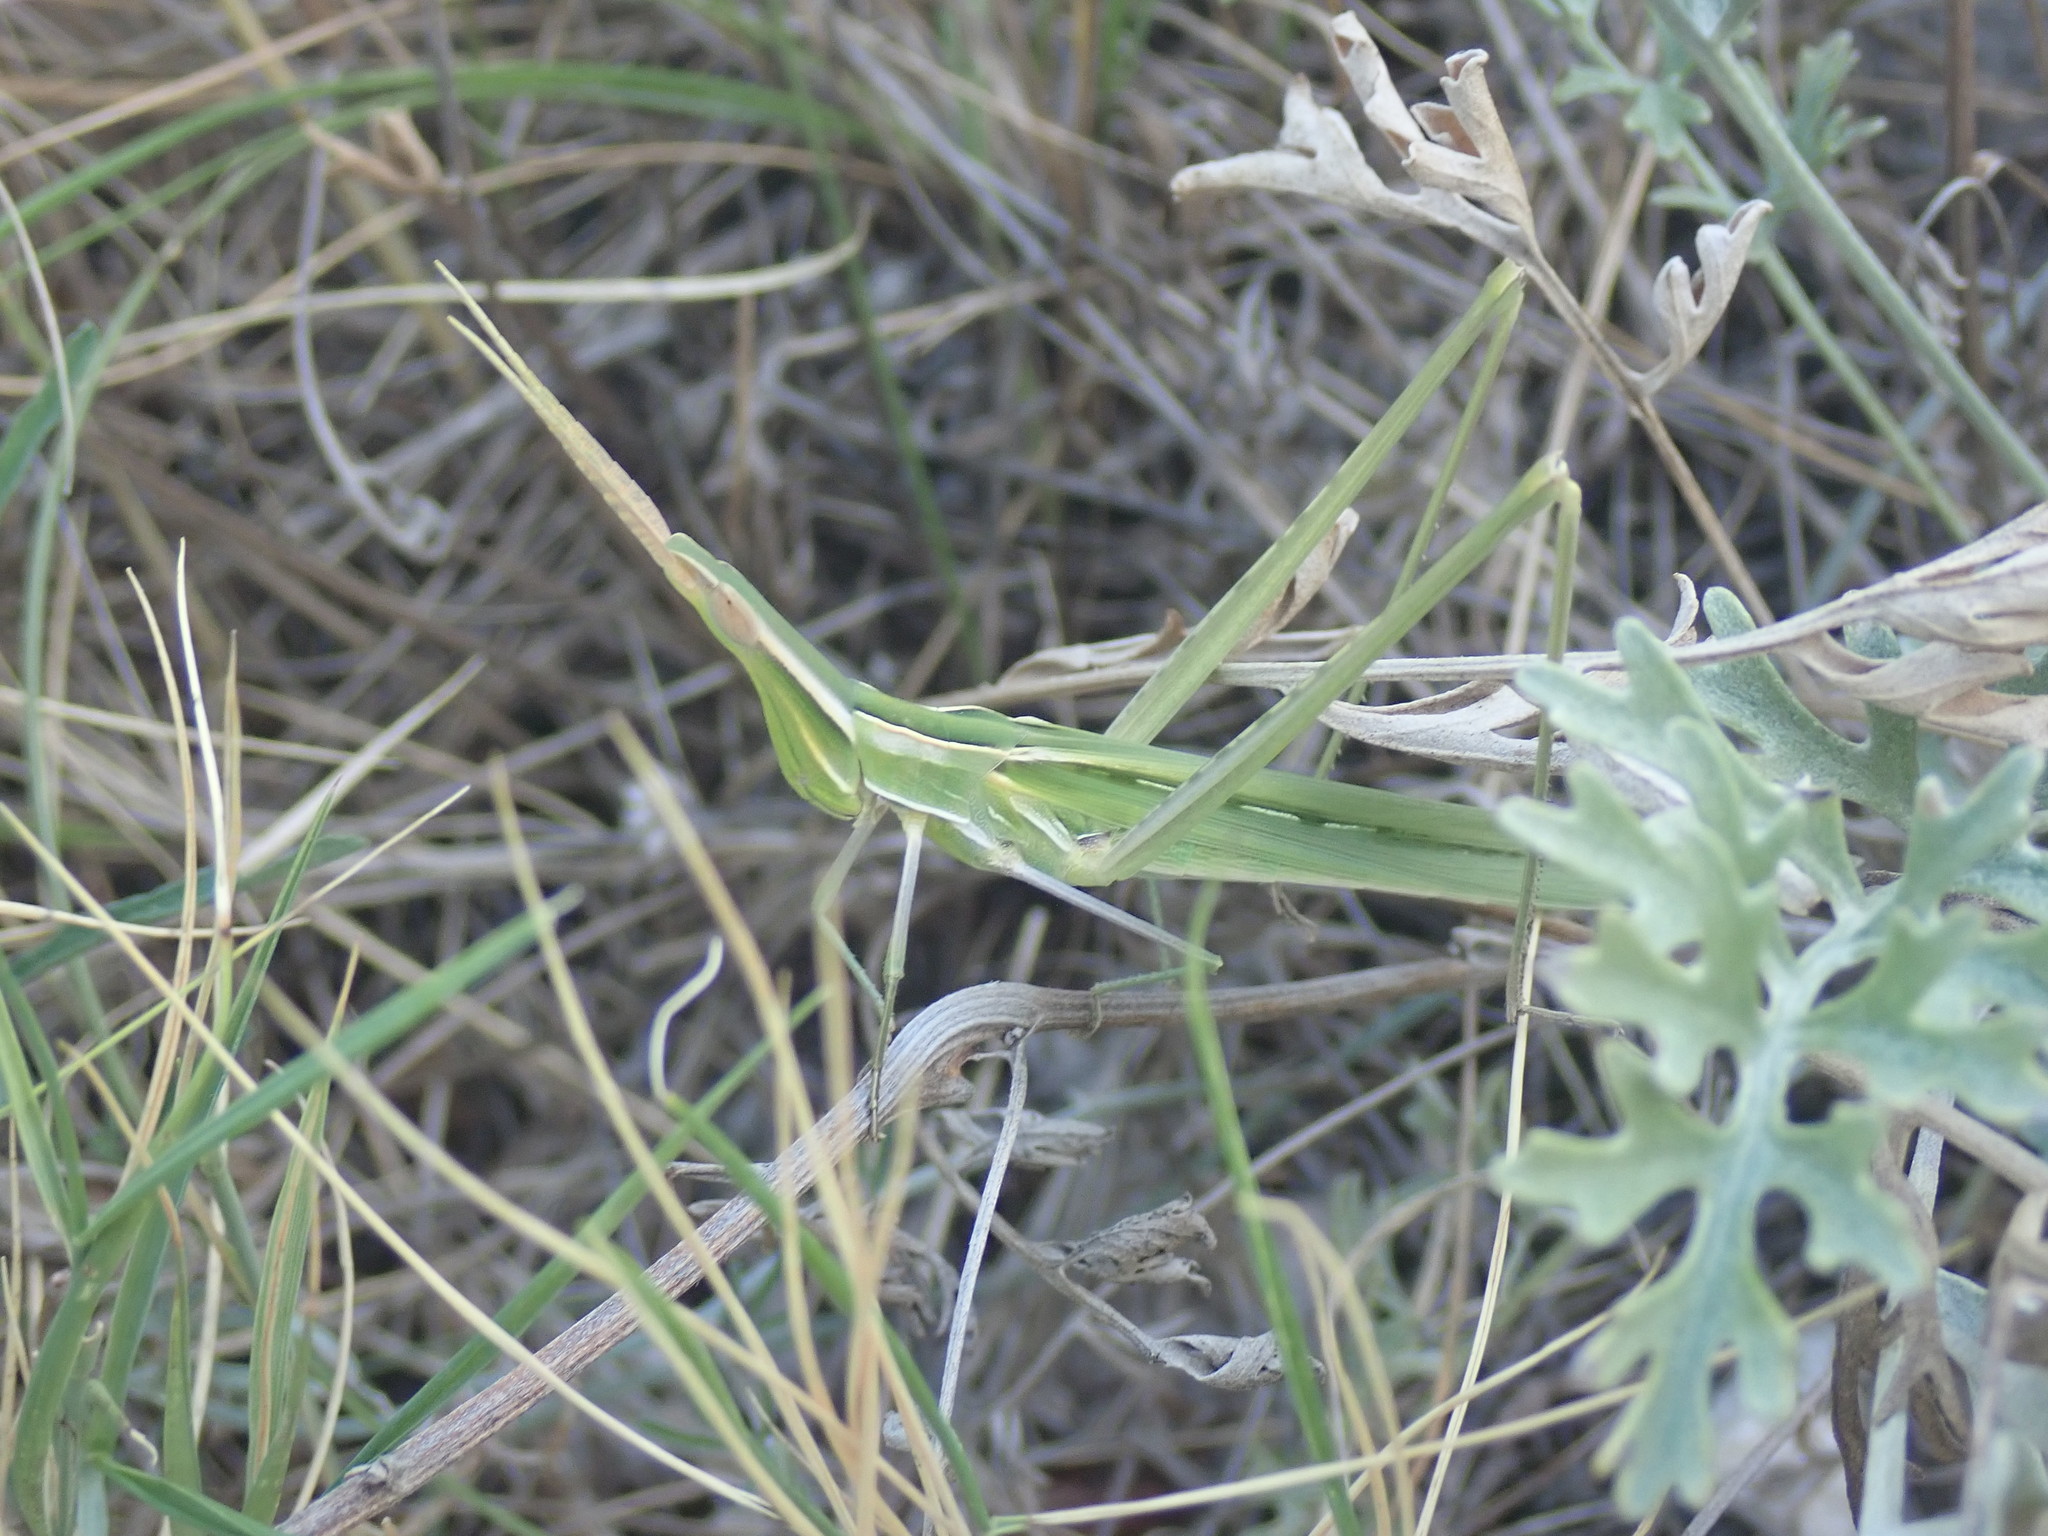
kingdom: Animalia
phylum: Arthropoda
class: Insecta
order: Orthoptera
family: Acrididae
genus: Acrida
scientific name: Acrida ungarica
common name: Common cone-headed grasshopper
